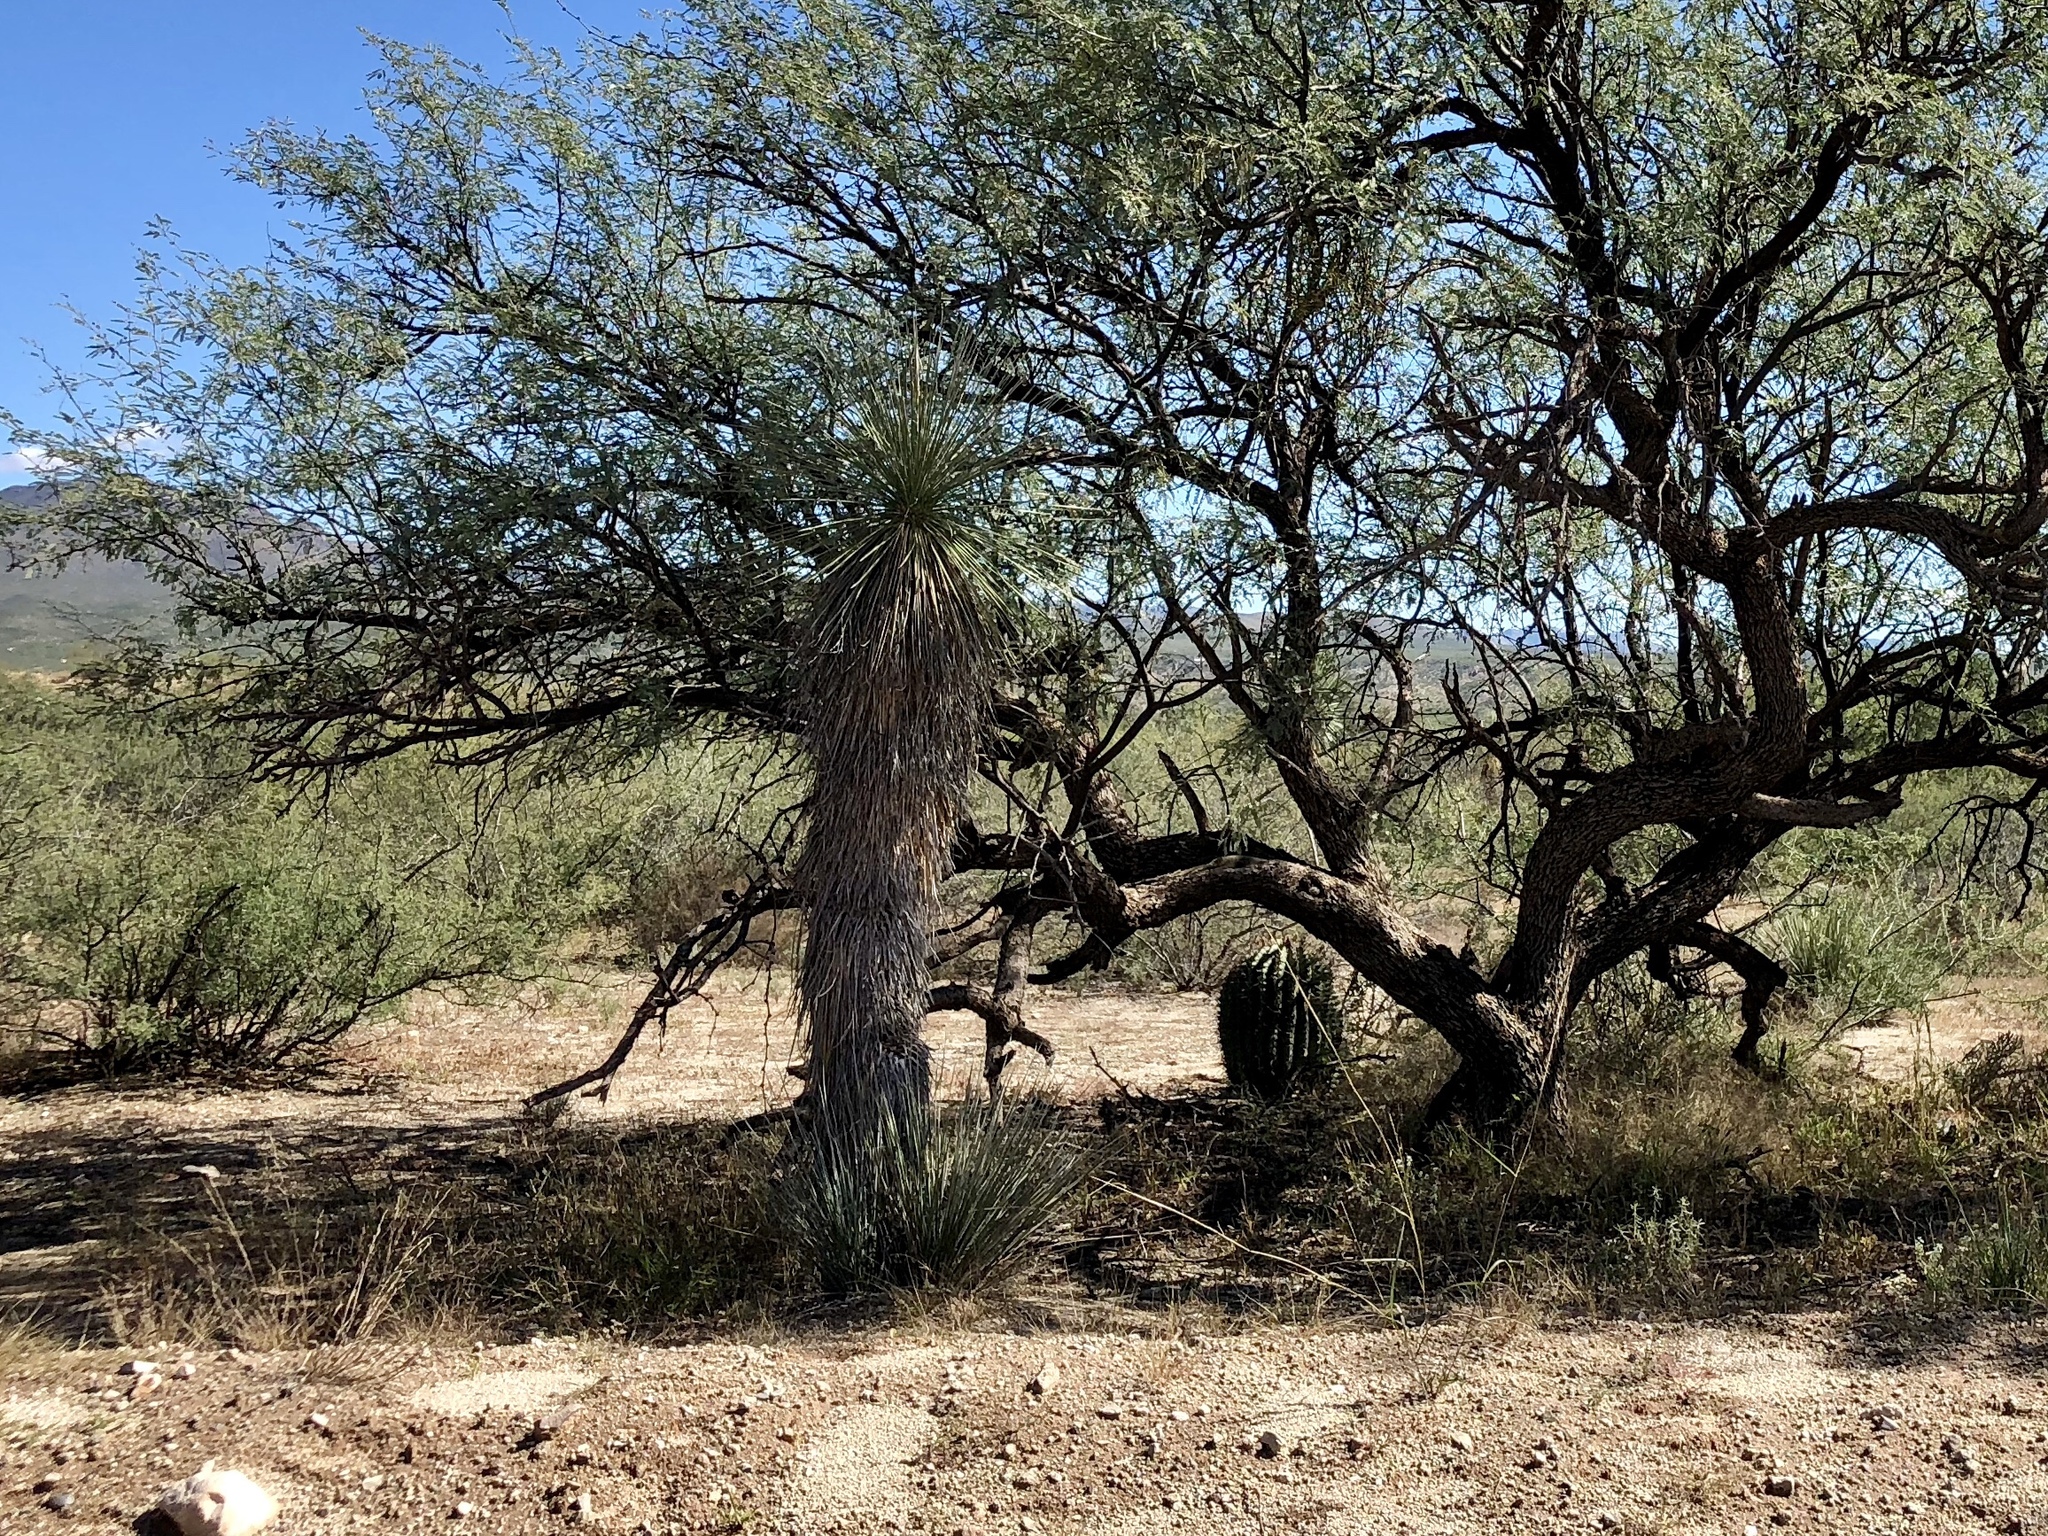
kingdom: Plantae
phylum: Tracheophyta
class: Liliopsida
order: Asparagales
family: Asparagaceae
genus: Yucca
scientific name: Yucca elata
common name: Palmella
